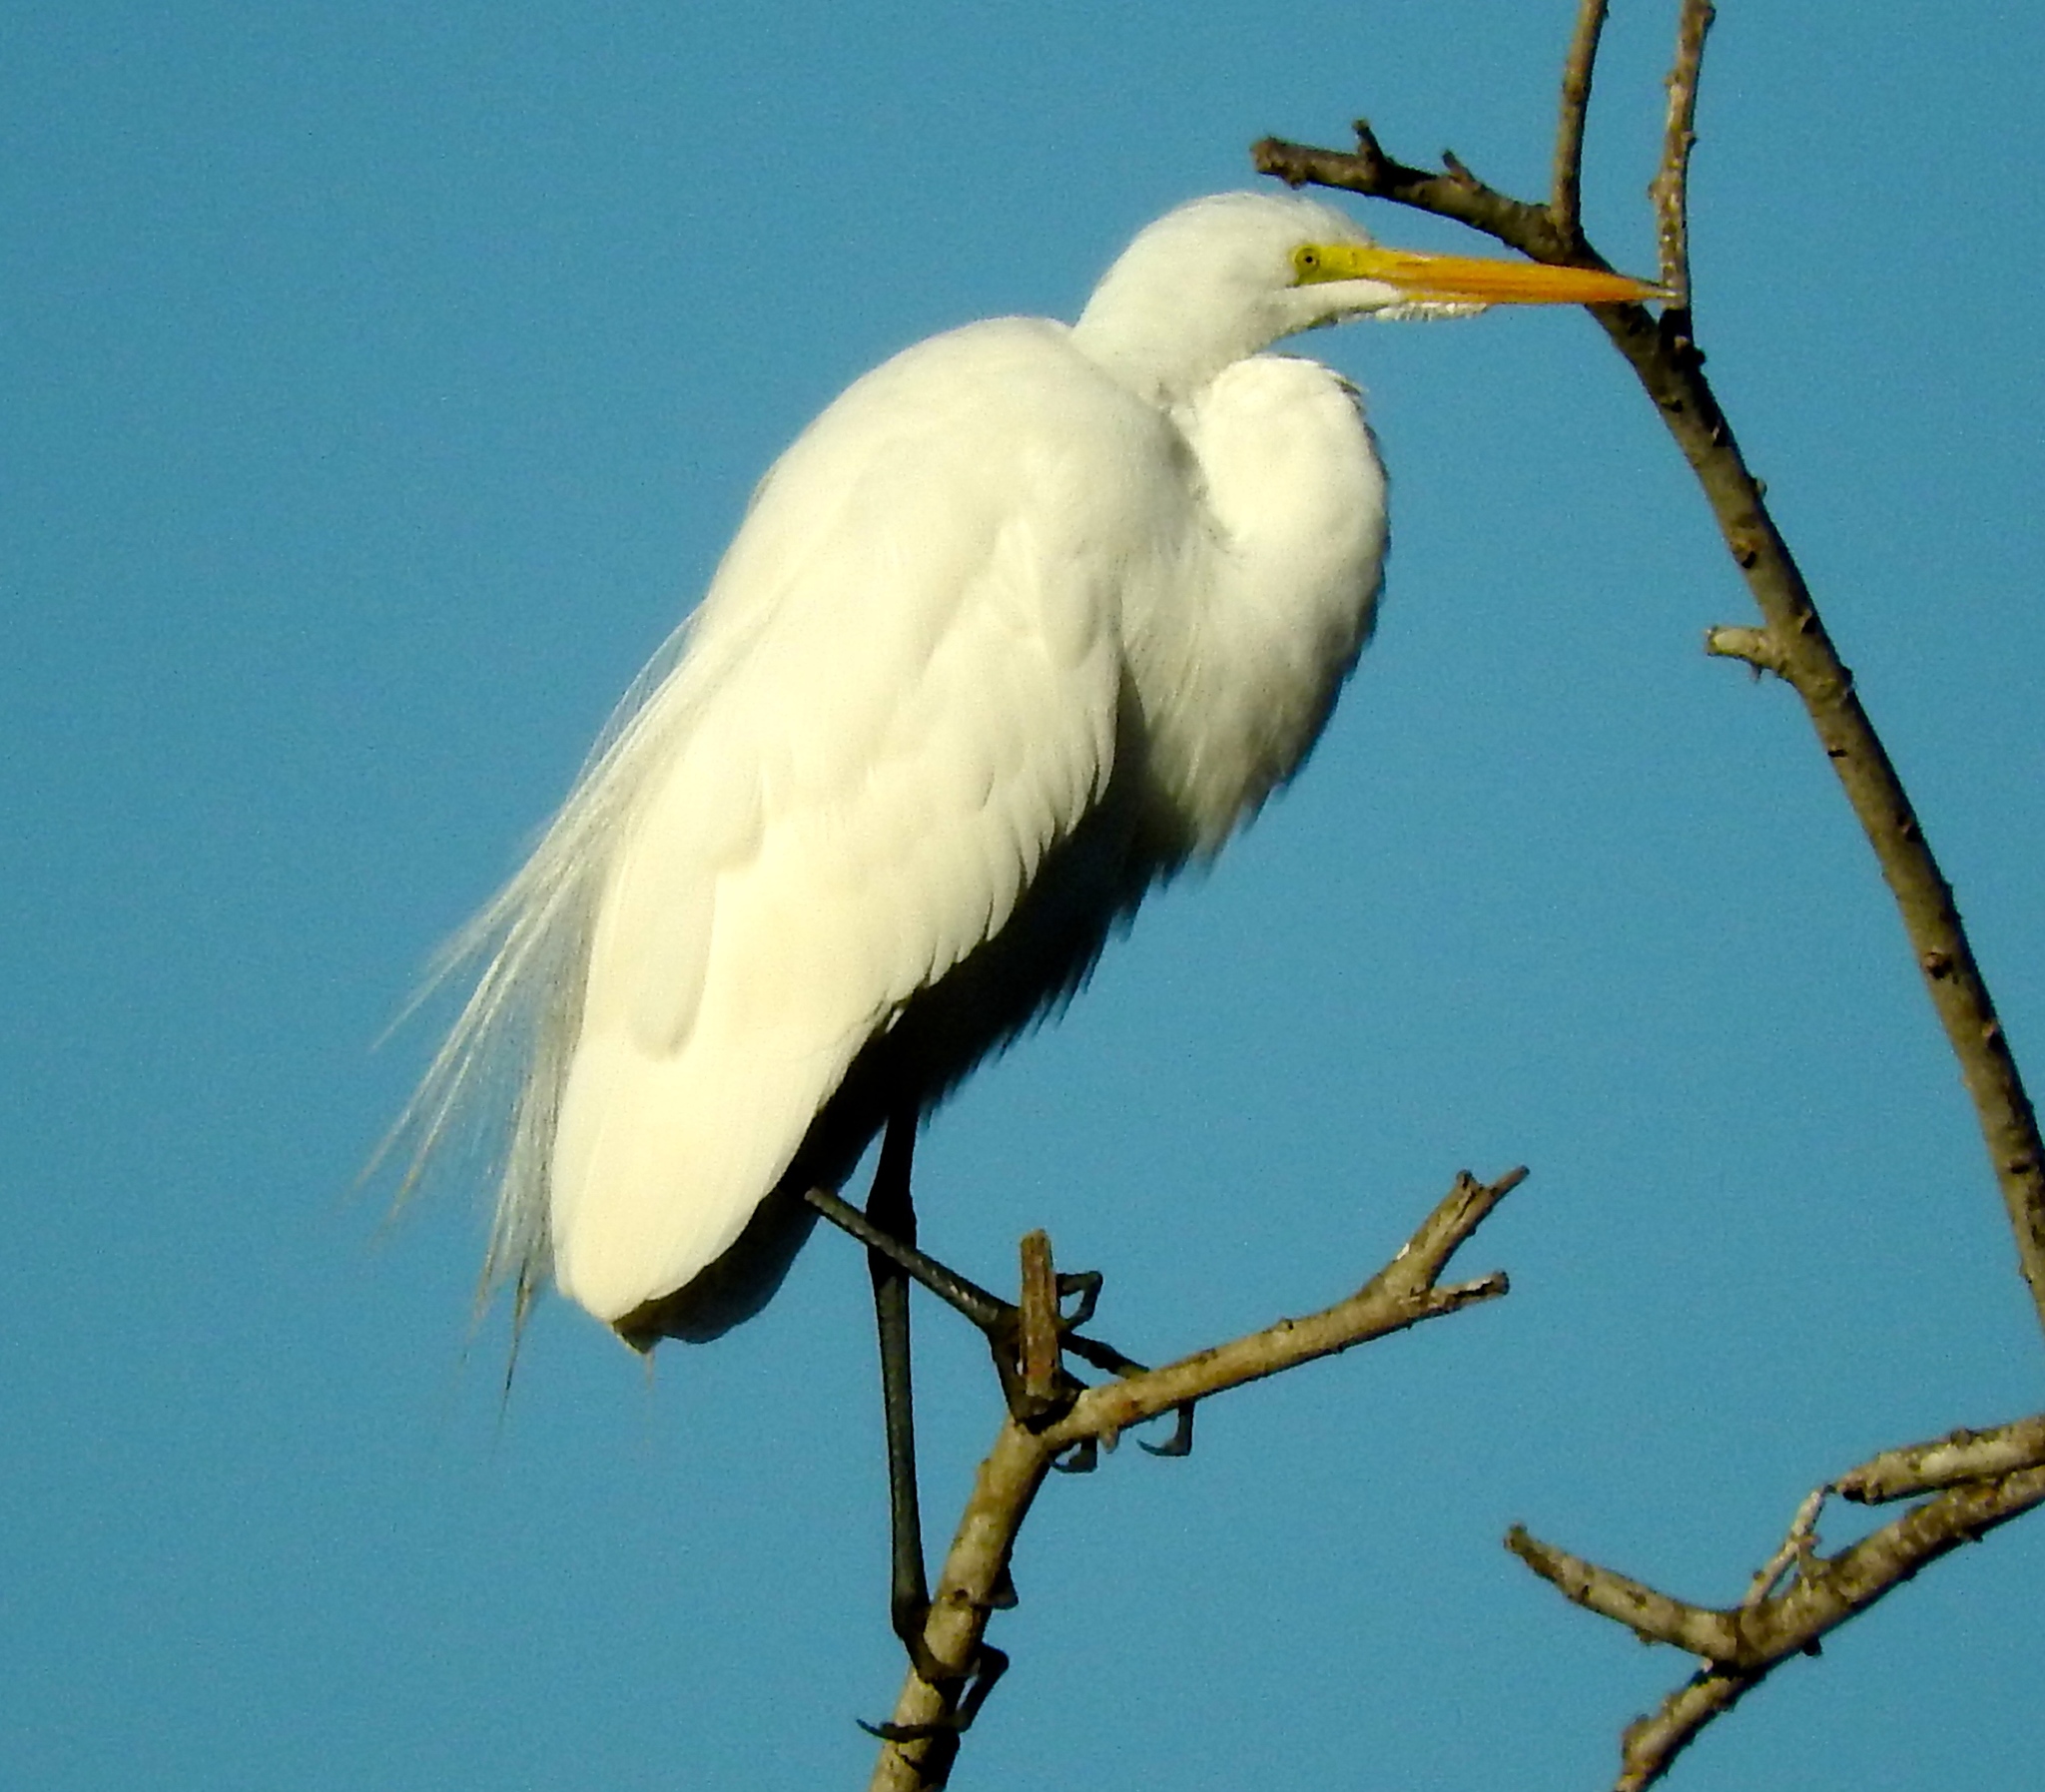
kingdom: Animalia
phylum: Chordata
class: Aves
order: Pelecaniformes
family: Ardeidae
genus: Ardea
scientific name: Ardea alba
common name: Great egret
